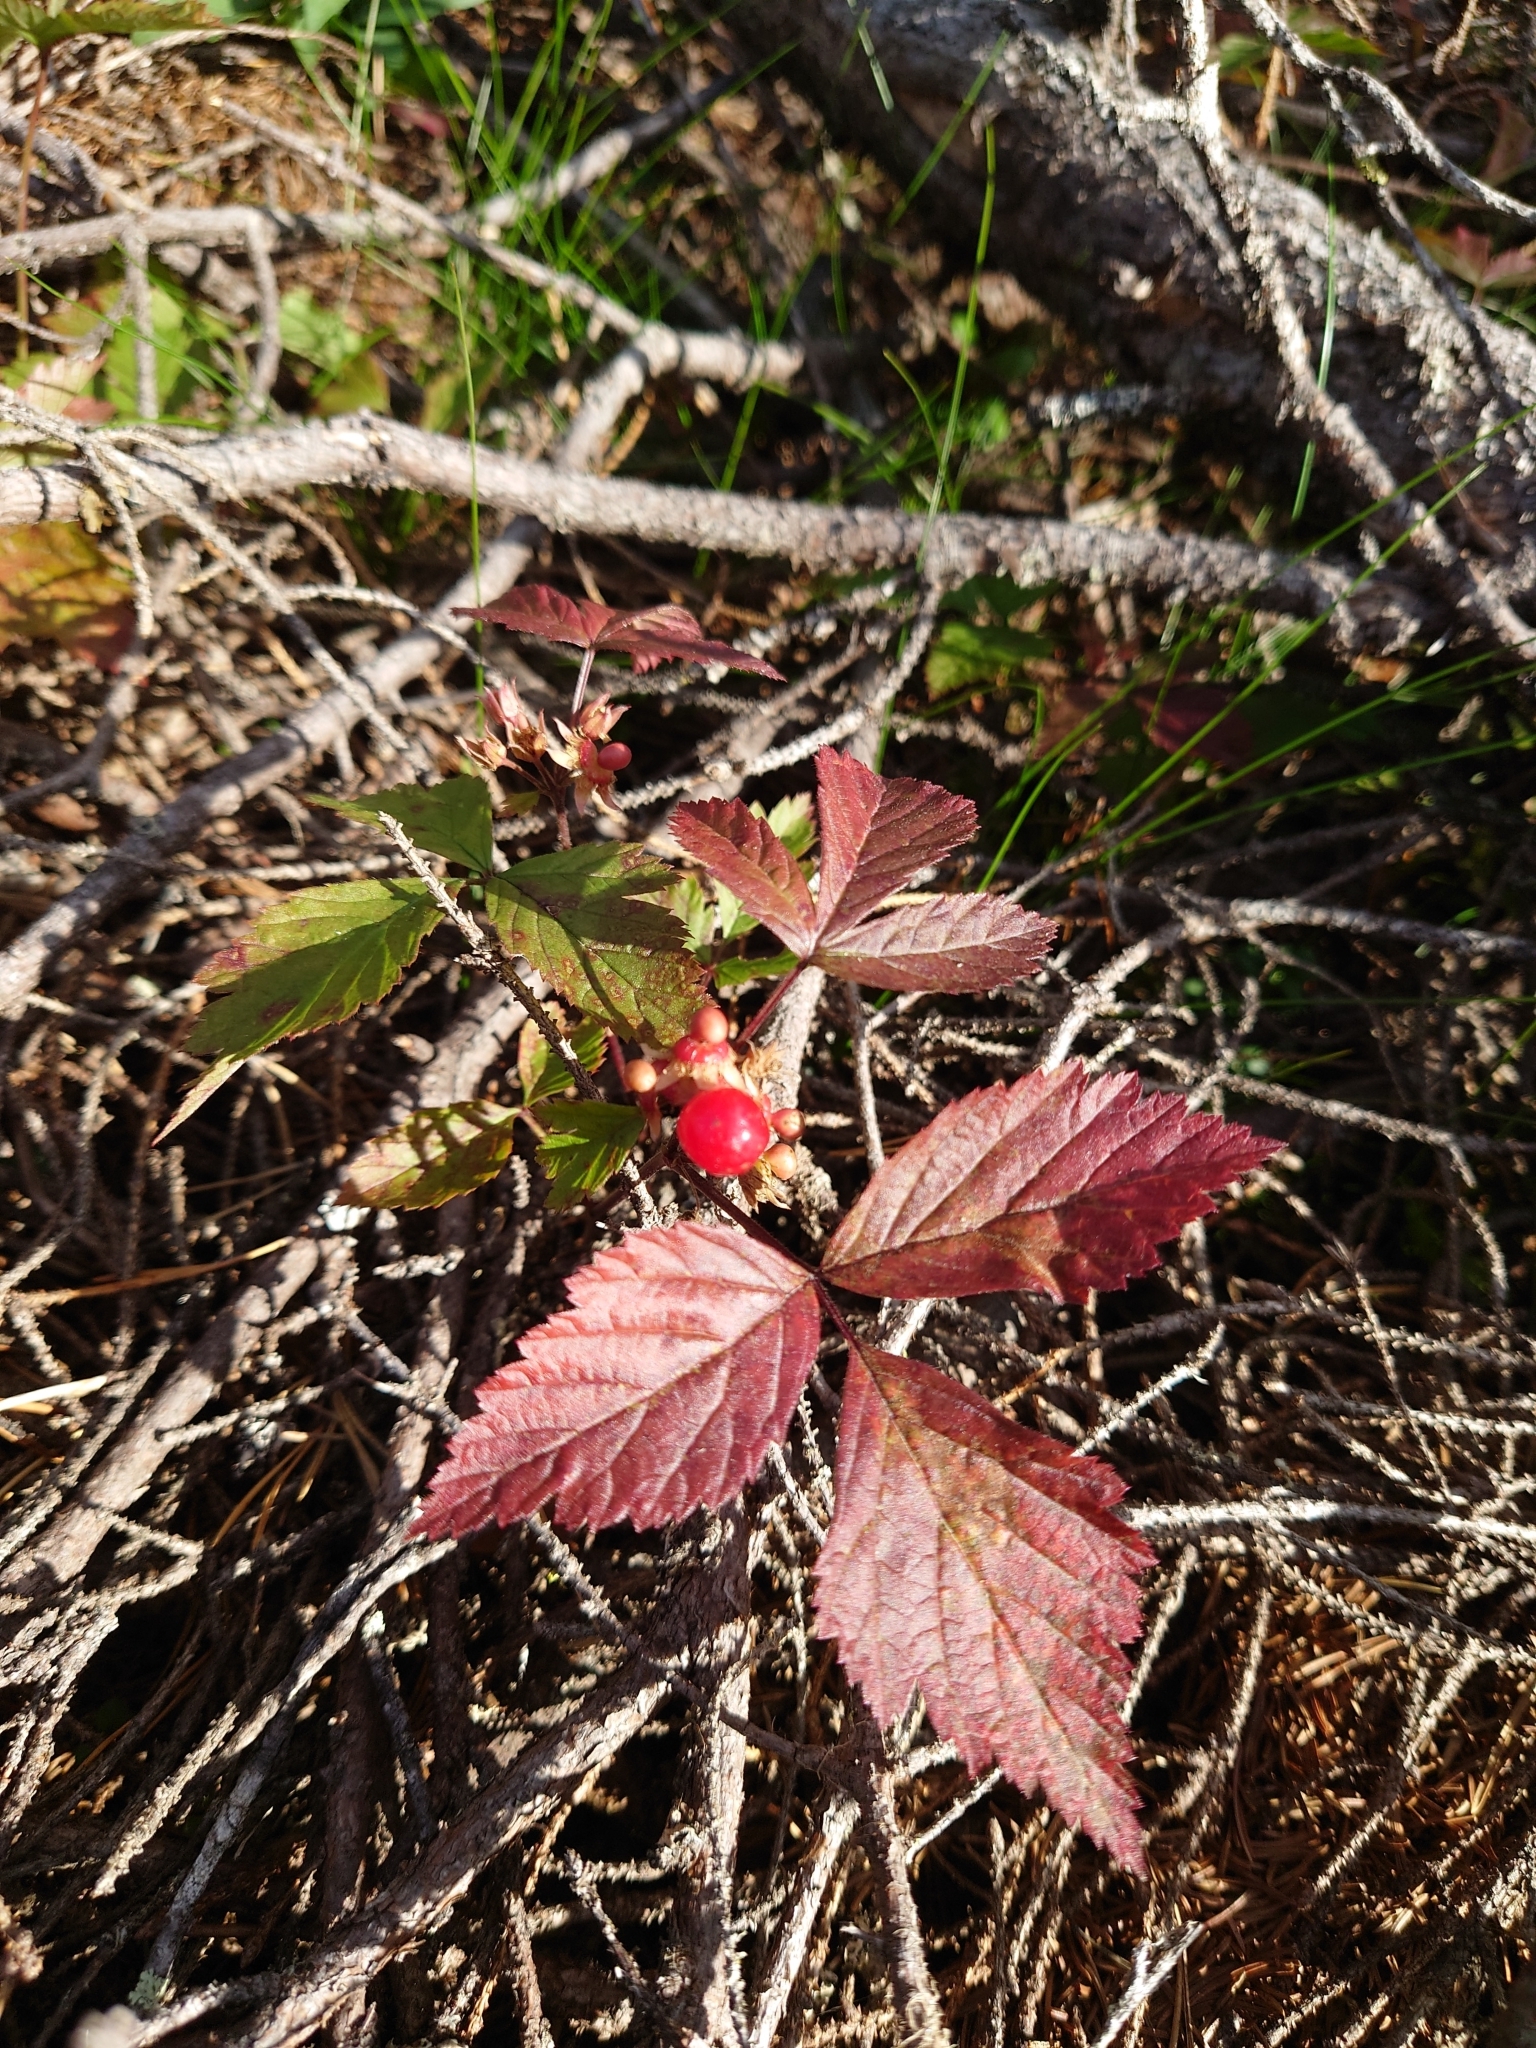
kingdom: Plantae
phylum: Tracheophyta
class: Magnoliopsida
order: Rosales
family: Rosaceae
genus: Rubus
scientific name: Rubus saxatilis
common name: Stone bramble
